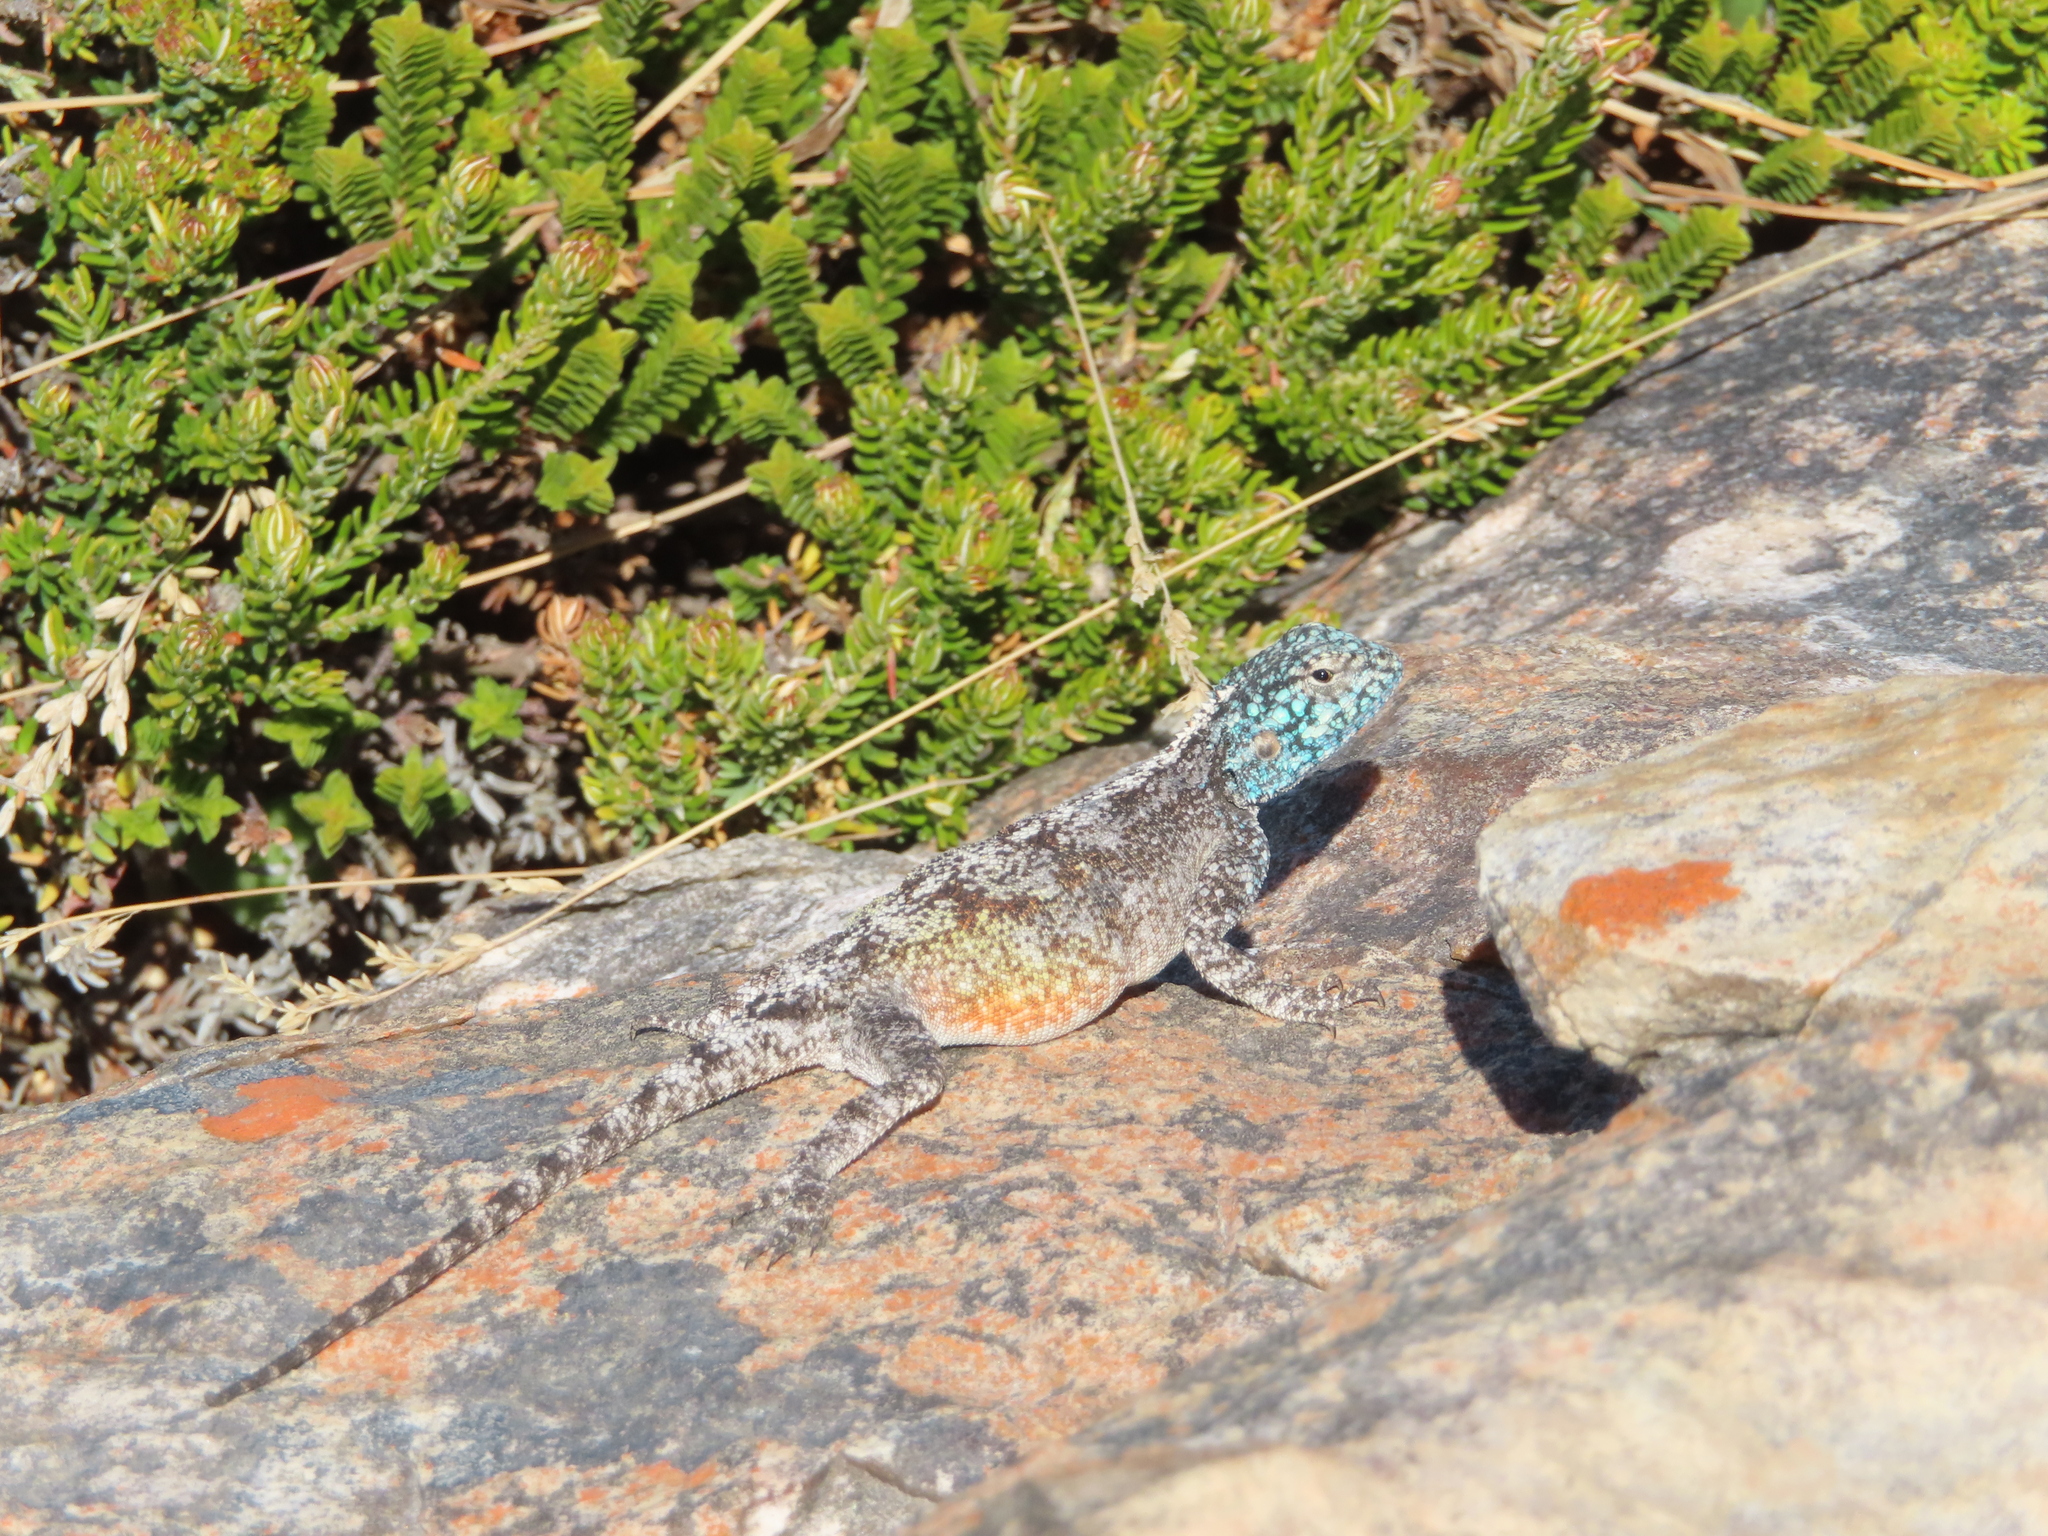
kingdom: Animalia
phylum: Chordata
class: Squamata
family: Agamidae
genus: Agama
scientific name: Agama atra
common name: Southern african rock agama
